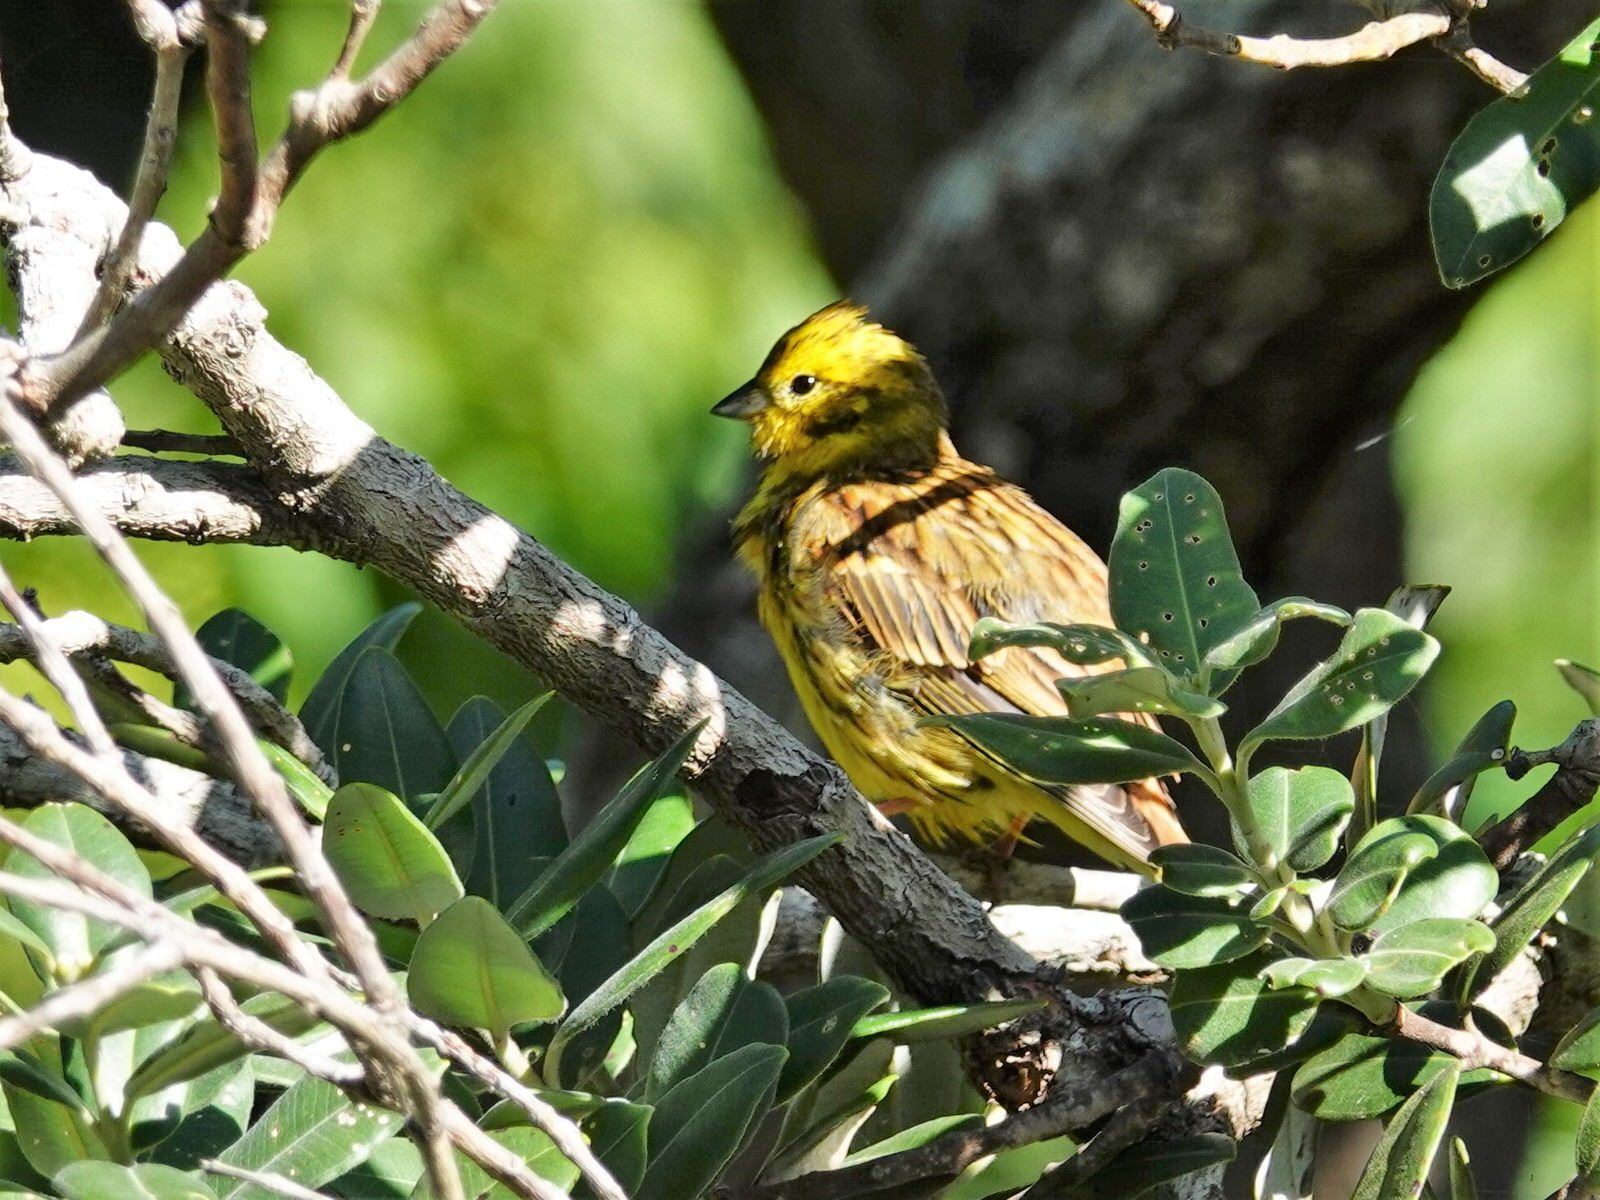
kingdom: Animalia
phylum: Chordata
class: Aves
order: Passeriformes
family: Emberizidae
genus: Emberiza
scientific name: Emberiza citrinella
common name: Yellowhammer
